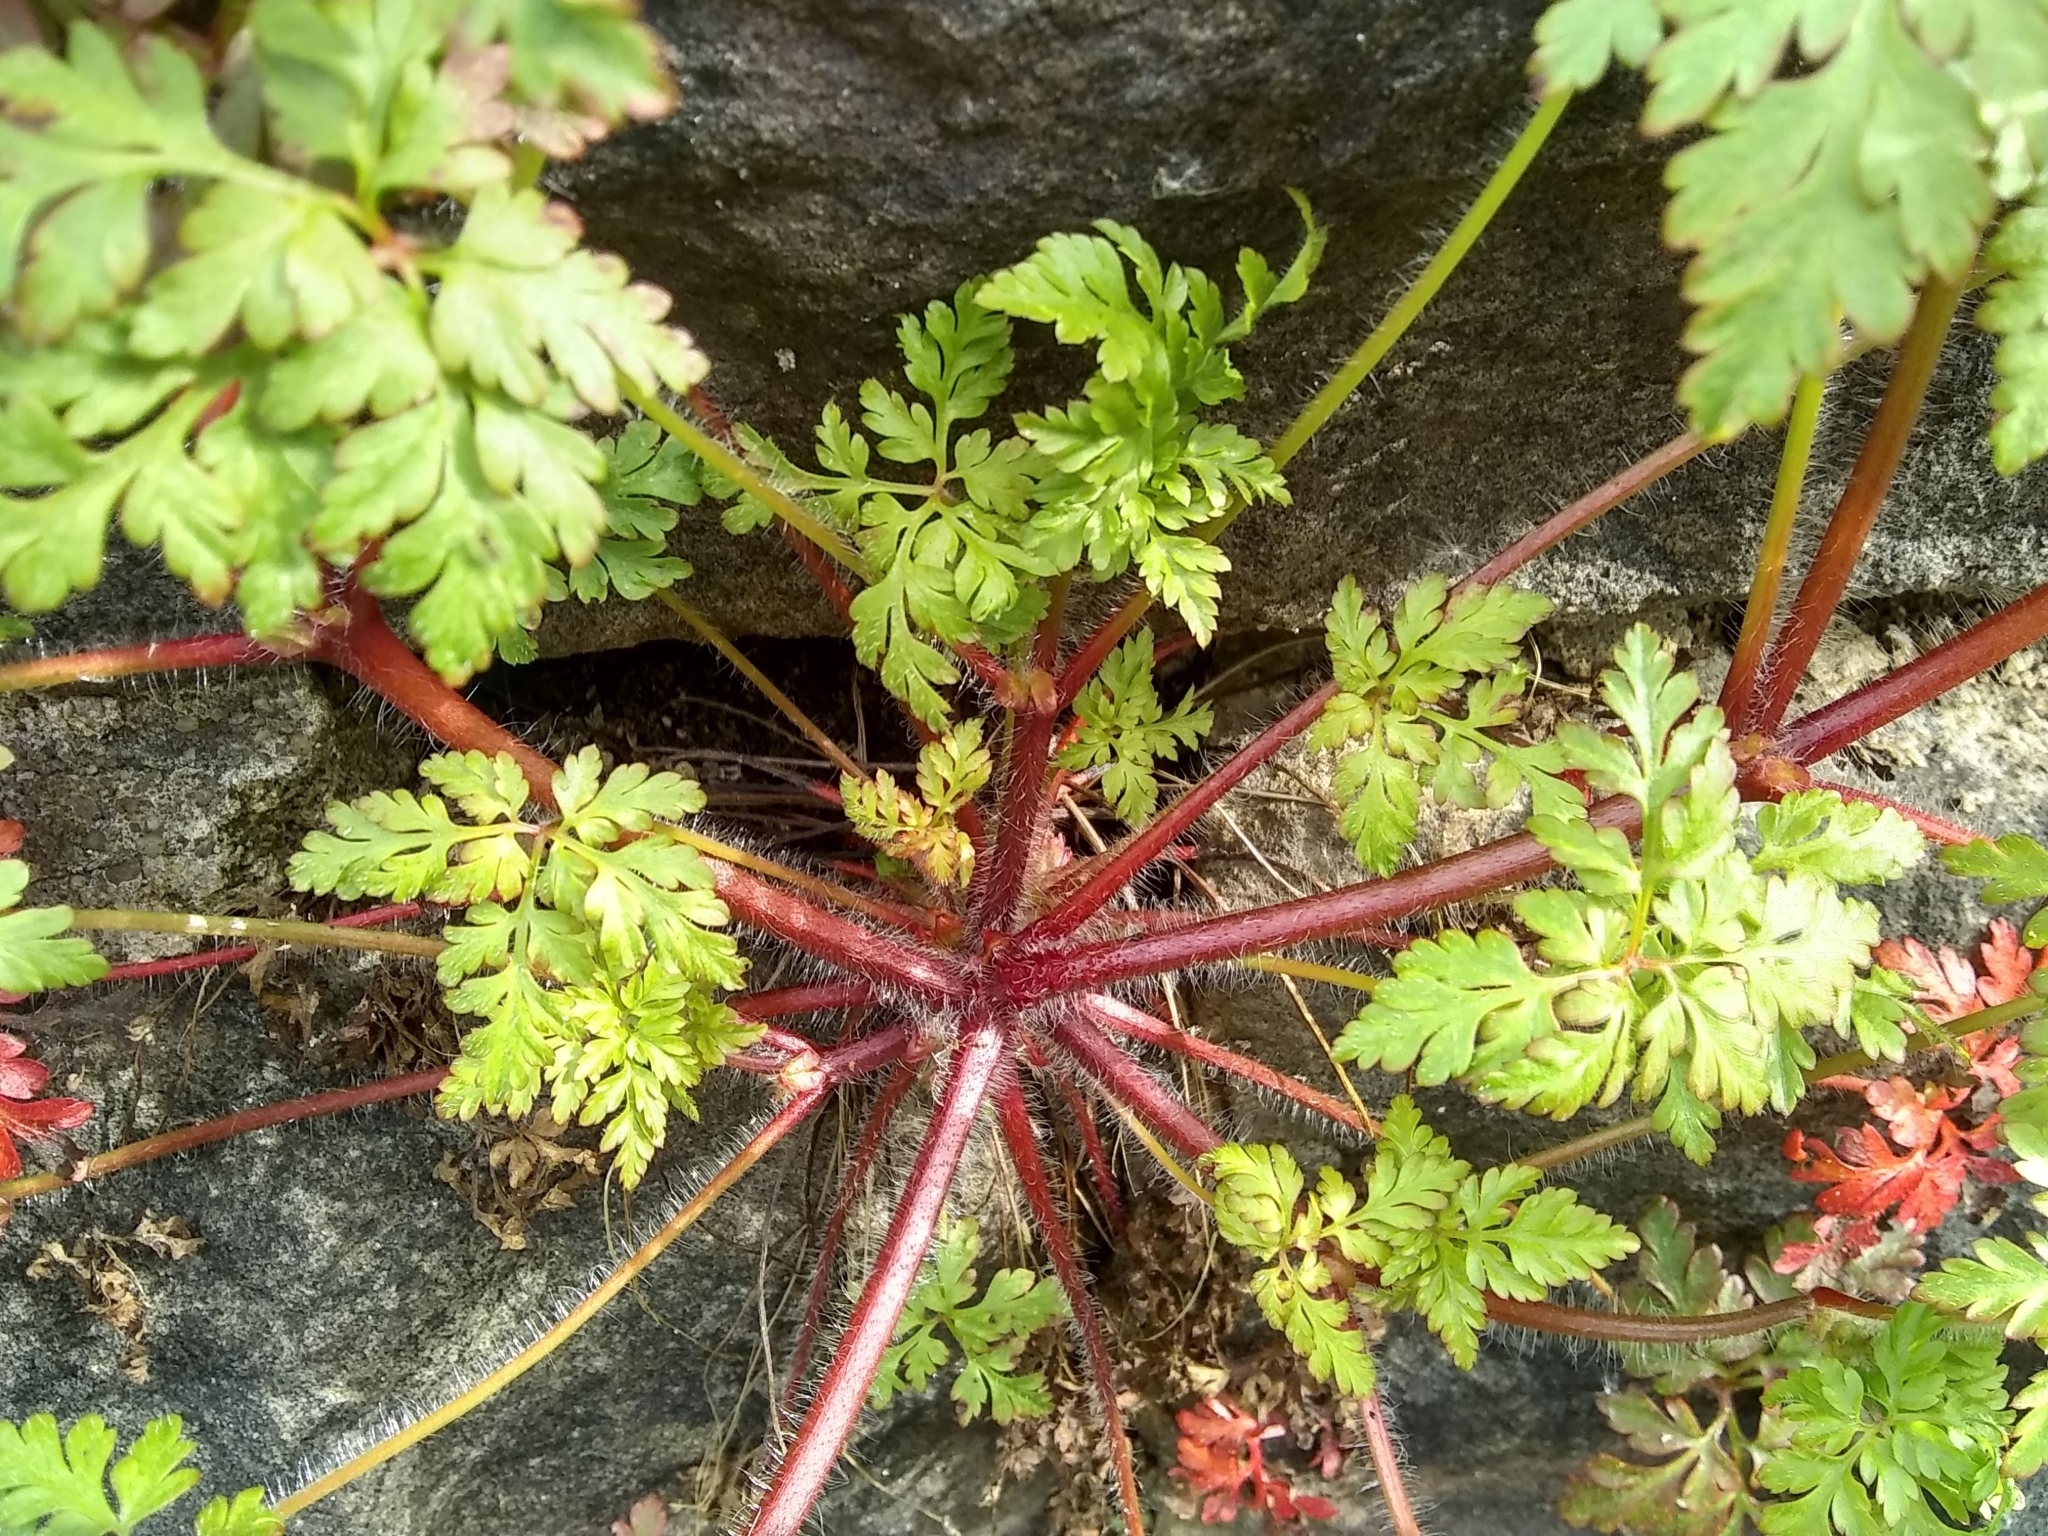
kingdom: Plantae
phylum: Tracheophyta
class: Magnoliopsida
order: Geraniales
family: Geraniaceae
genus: Geranium
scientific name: Geranium robertianum
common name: Herb-robert
